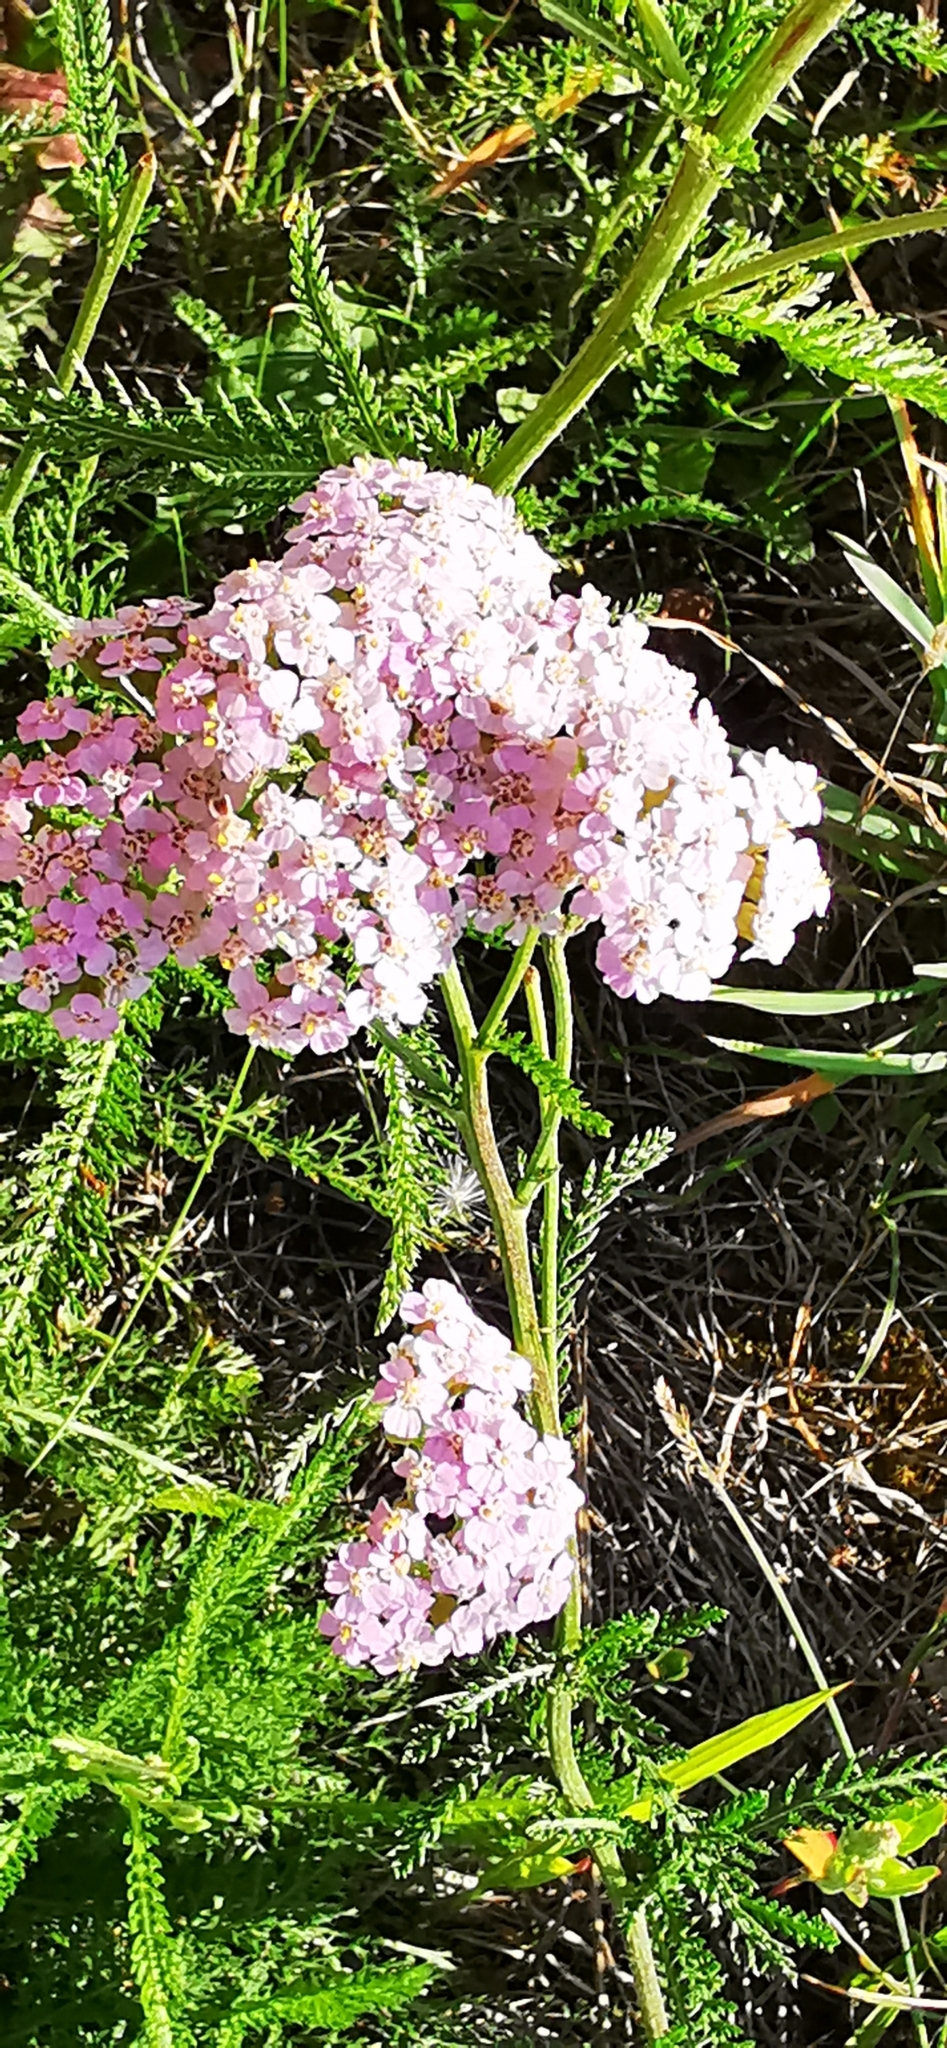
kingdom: Plantae
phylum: Tracheophyta
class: Magnoliopsida
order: Asterales
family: Asteraceae
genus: Achillea
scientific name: Achillea millefolium
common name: Yarrow
